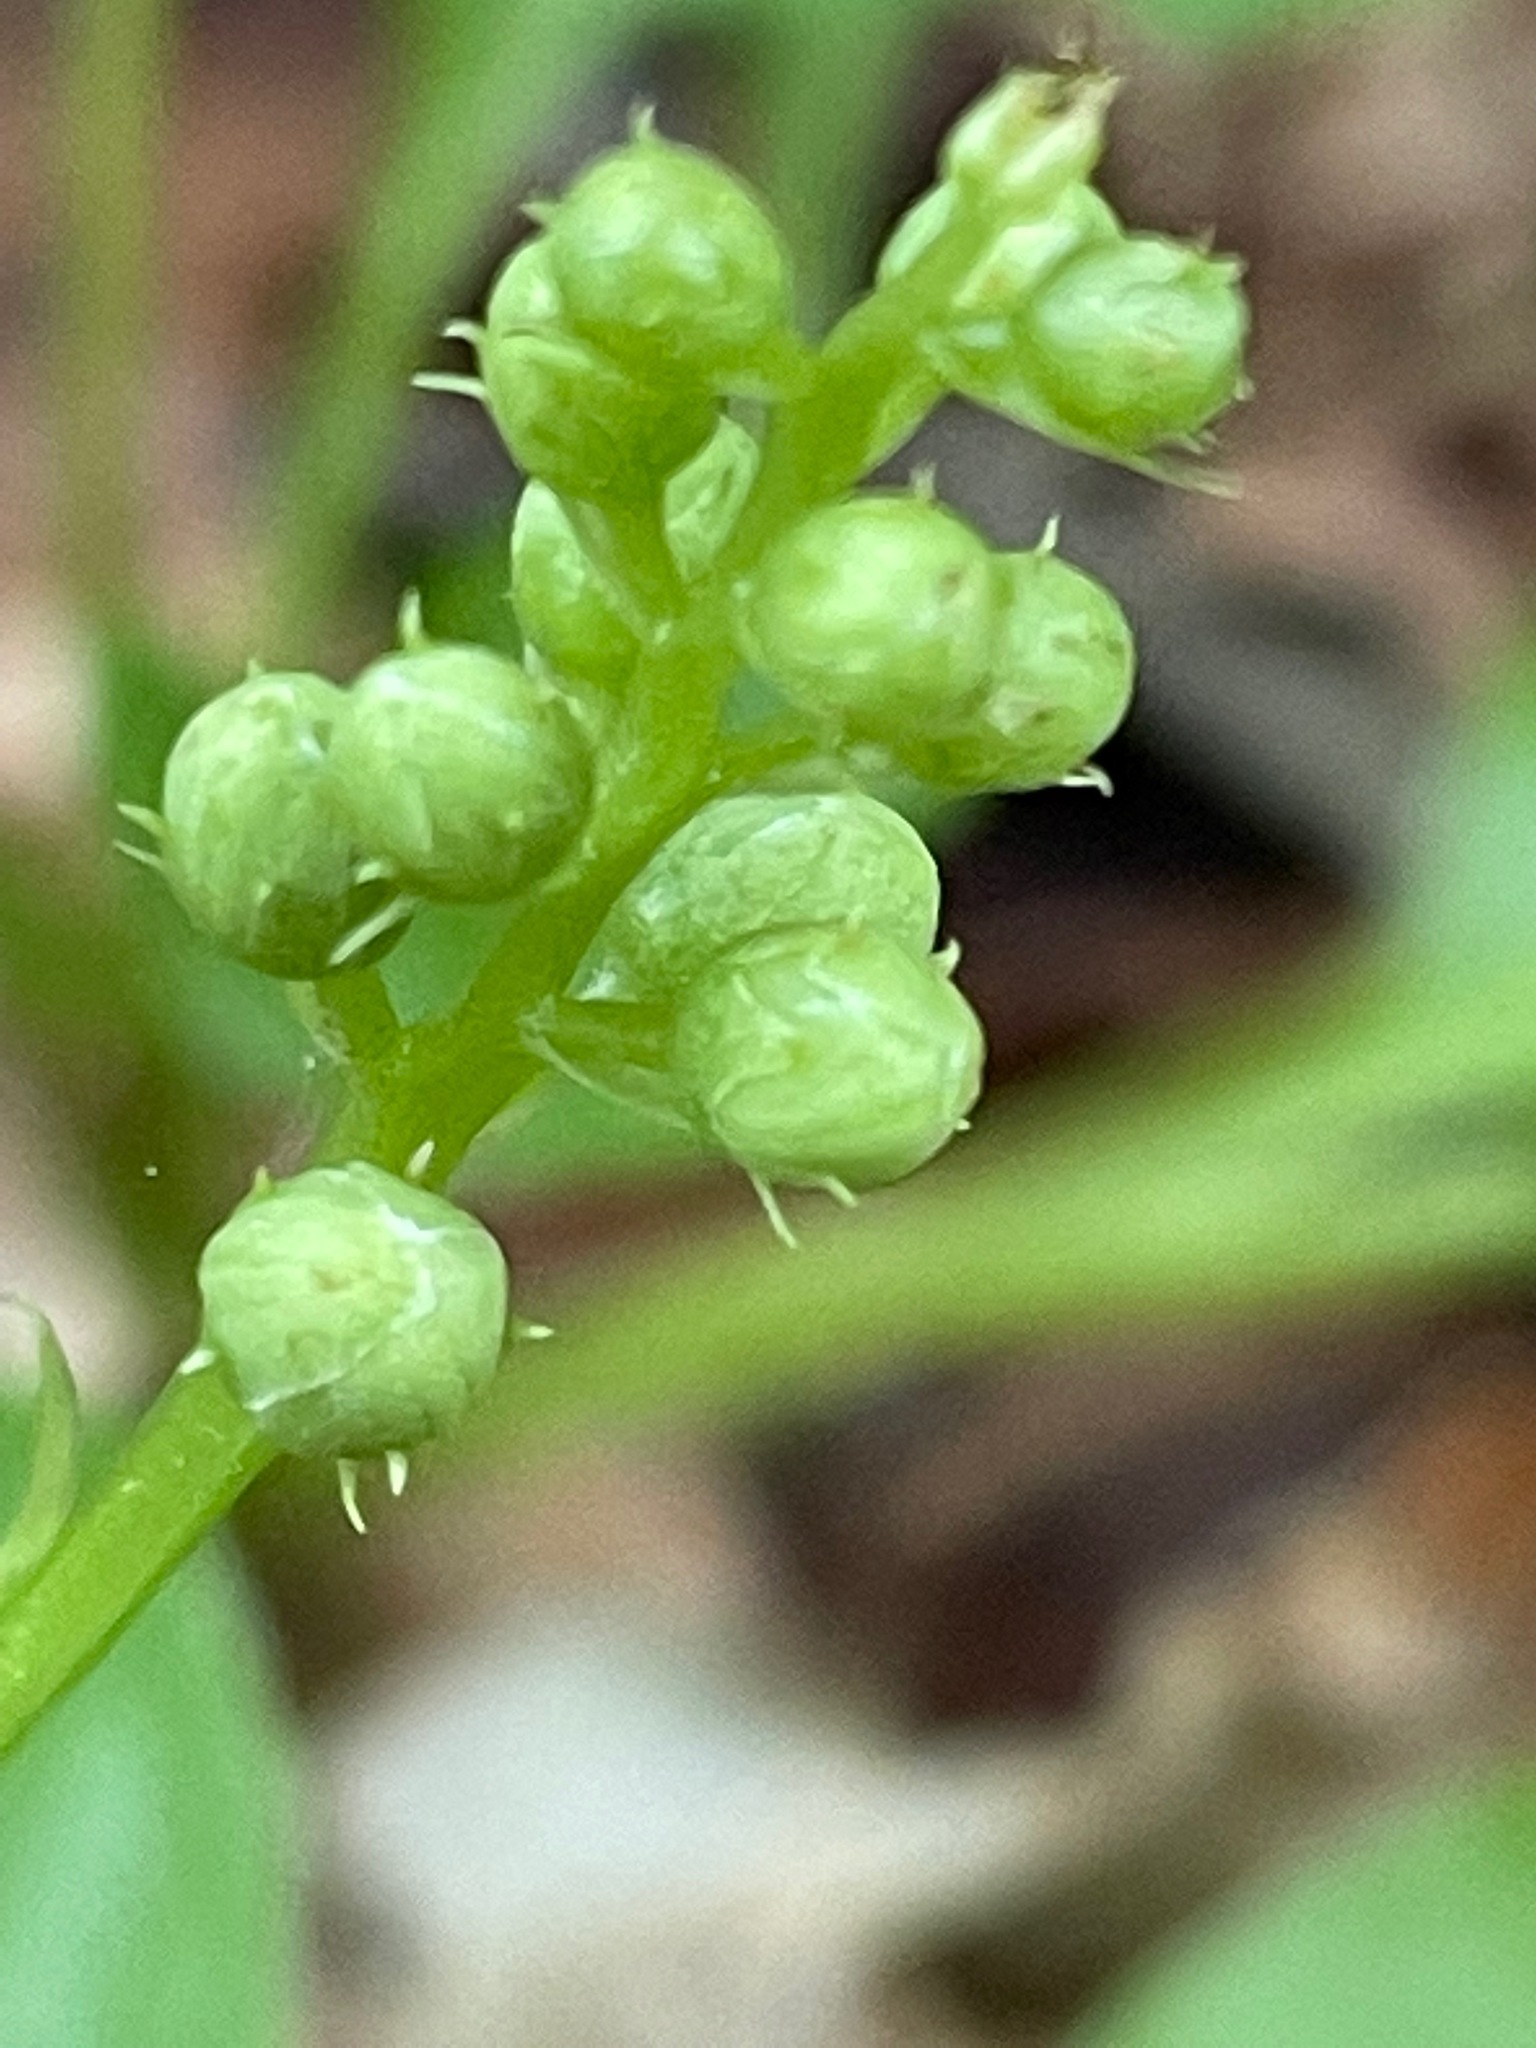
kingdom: Plantae
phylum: Tracheophyta
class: Magnoliopsida
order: Ericales
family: Ericaceae
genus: Pyrola
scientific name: Pyrola elliptica
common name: Shinleaf
